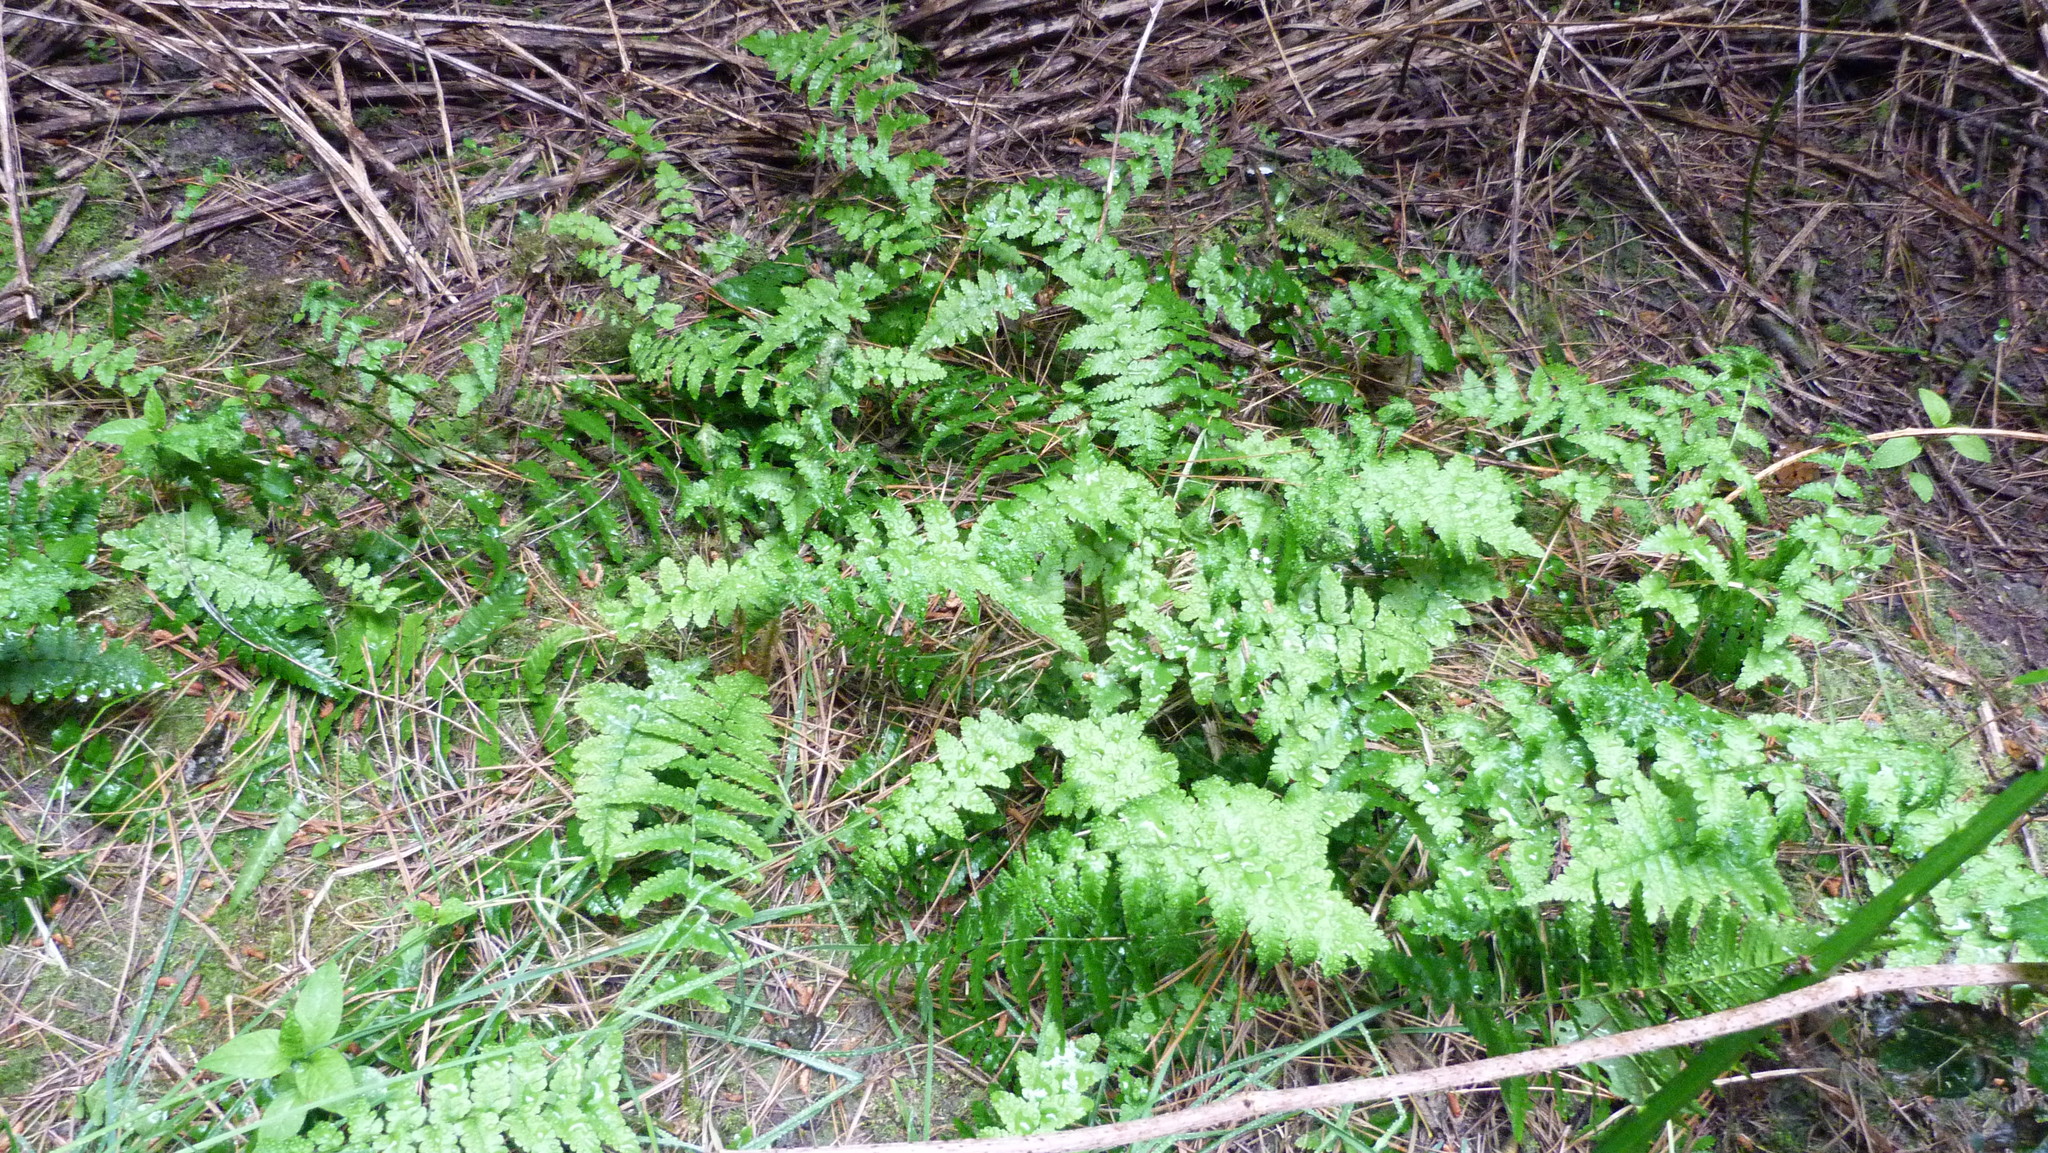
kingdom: Plantae
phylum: Tracheophyta
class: Polypodiopsida
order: Polypodiales
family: Dryopteridaceae
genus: Dryopteris
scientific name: Dryopteris filix-mas
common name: Male fern
